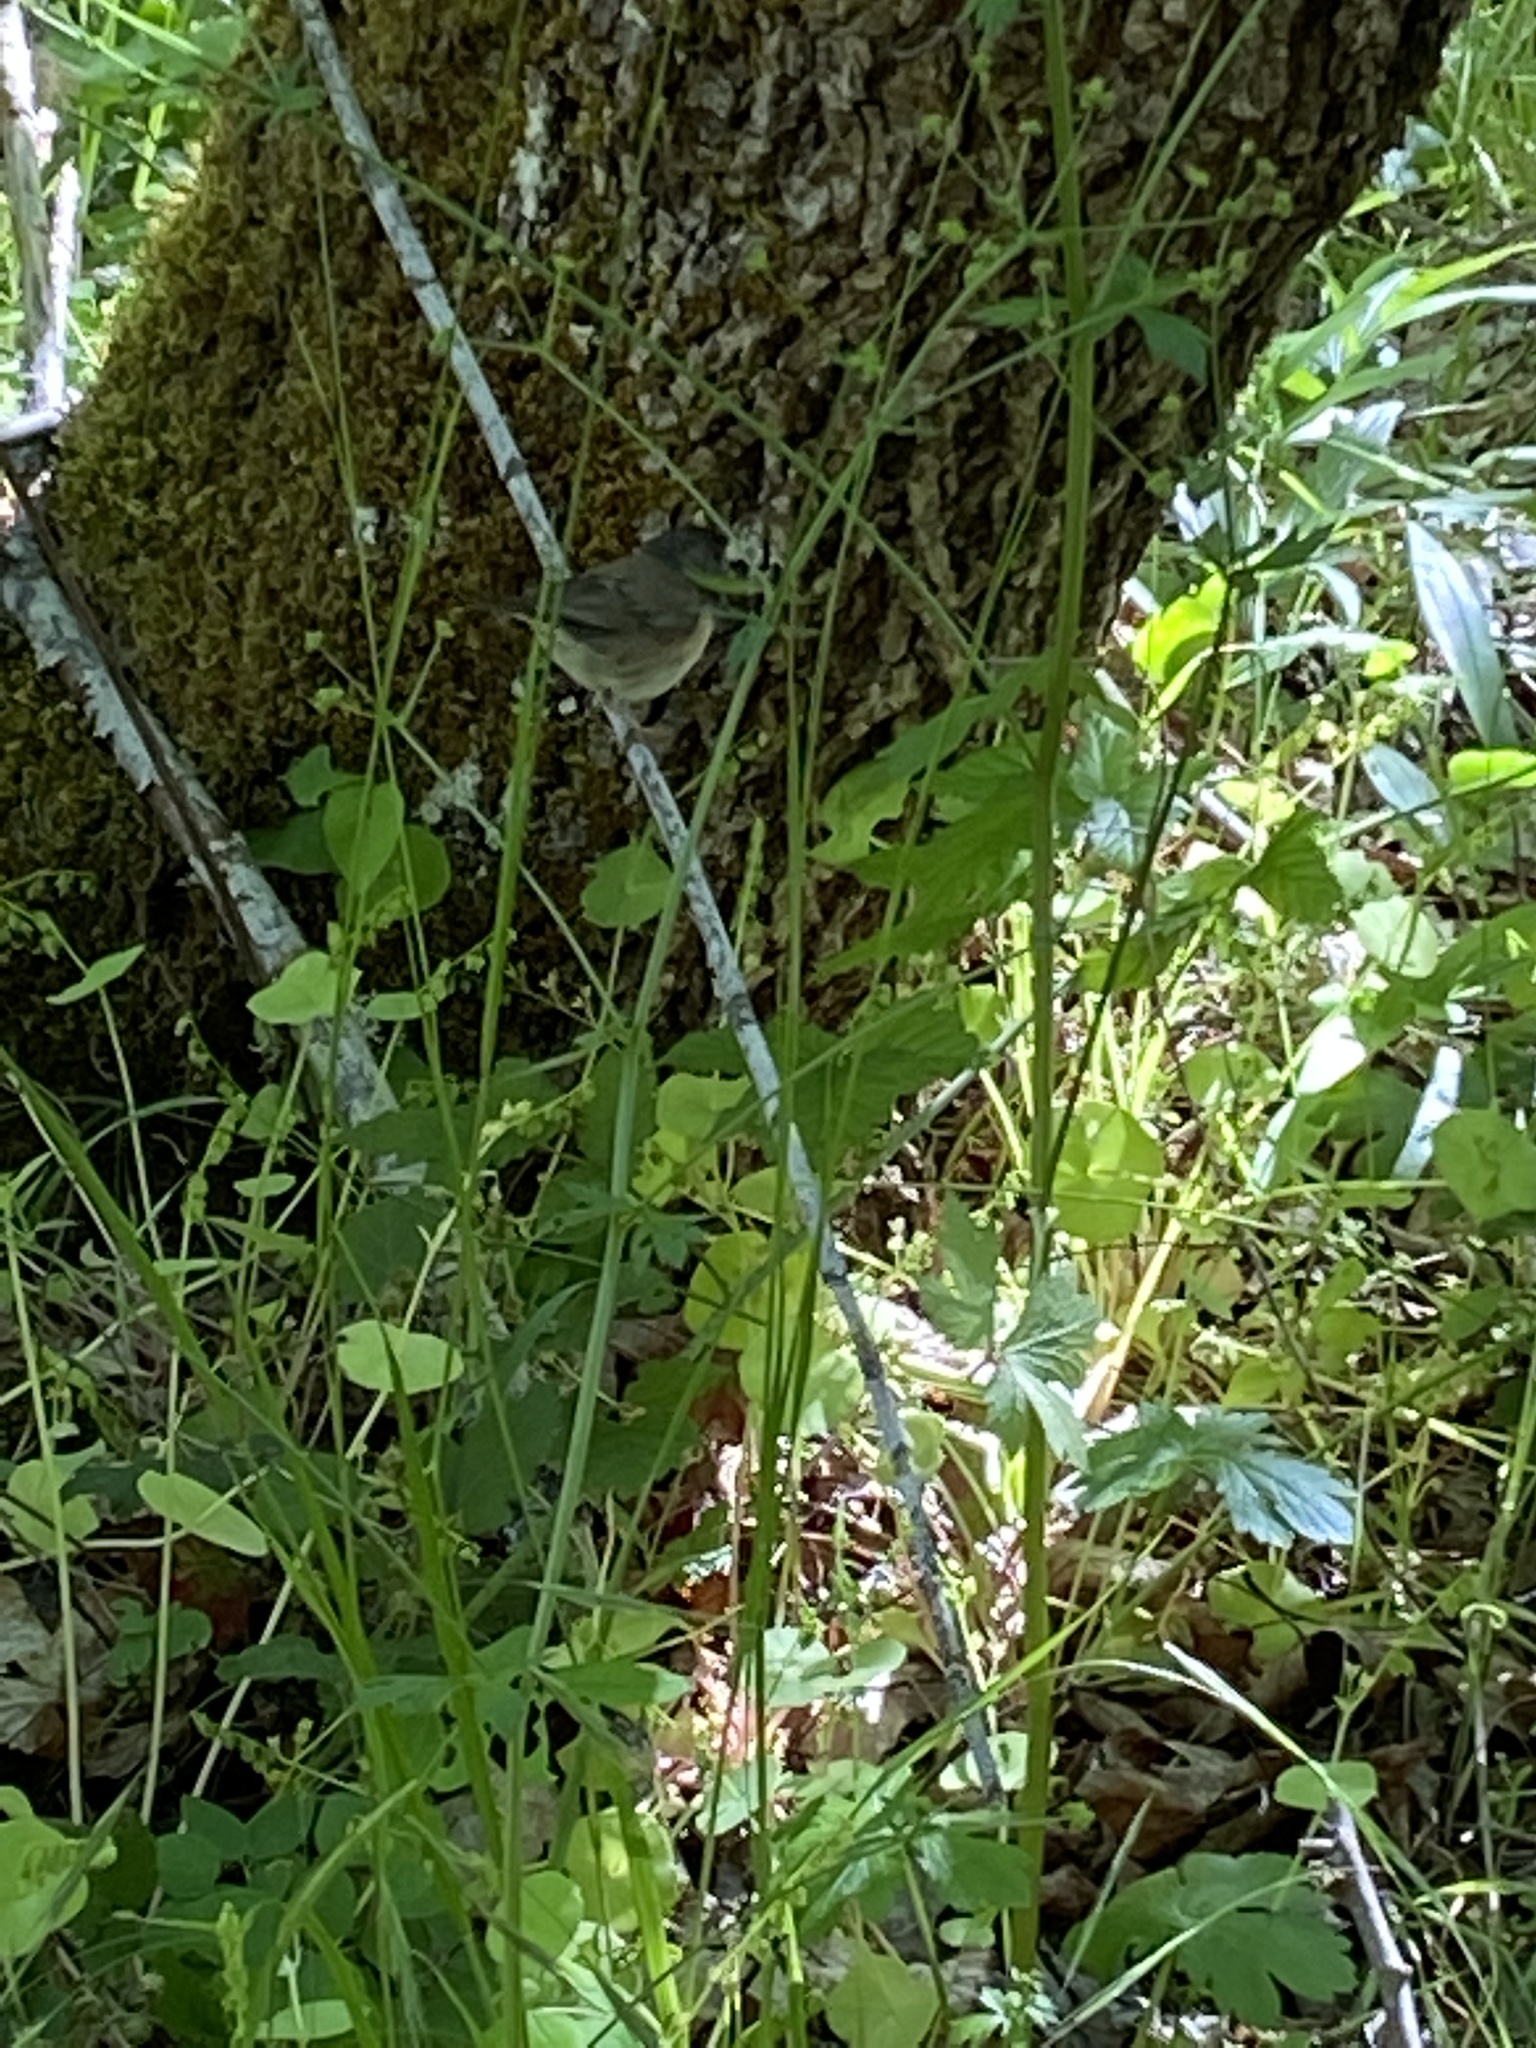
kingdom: Animalia
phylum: Chordata
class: Aves
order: Passeriformes
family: Passerellidae
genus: Junco
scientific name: Junco hyemalis
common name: Dark-eyed junco
